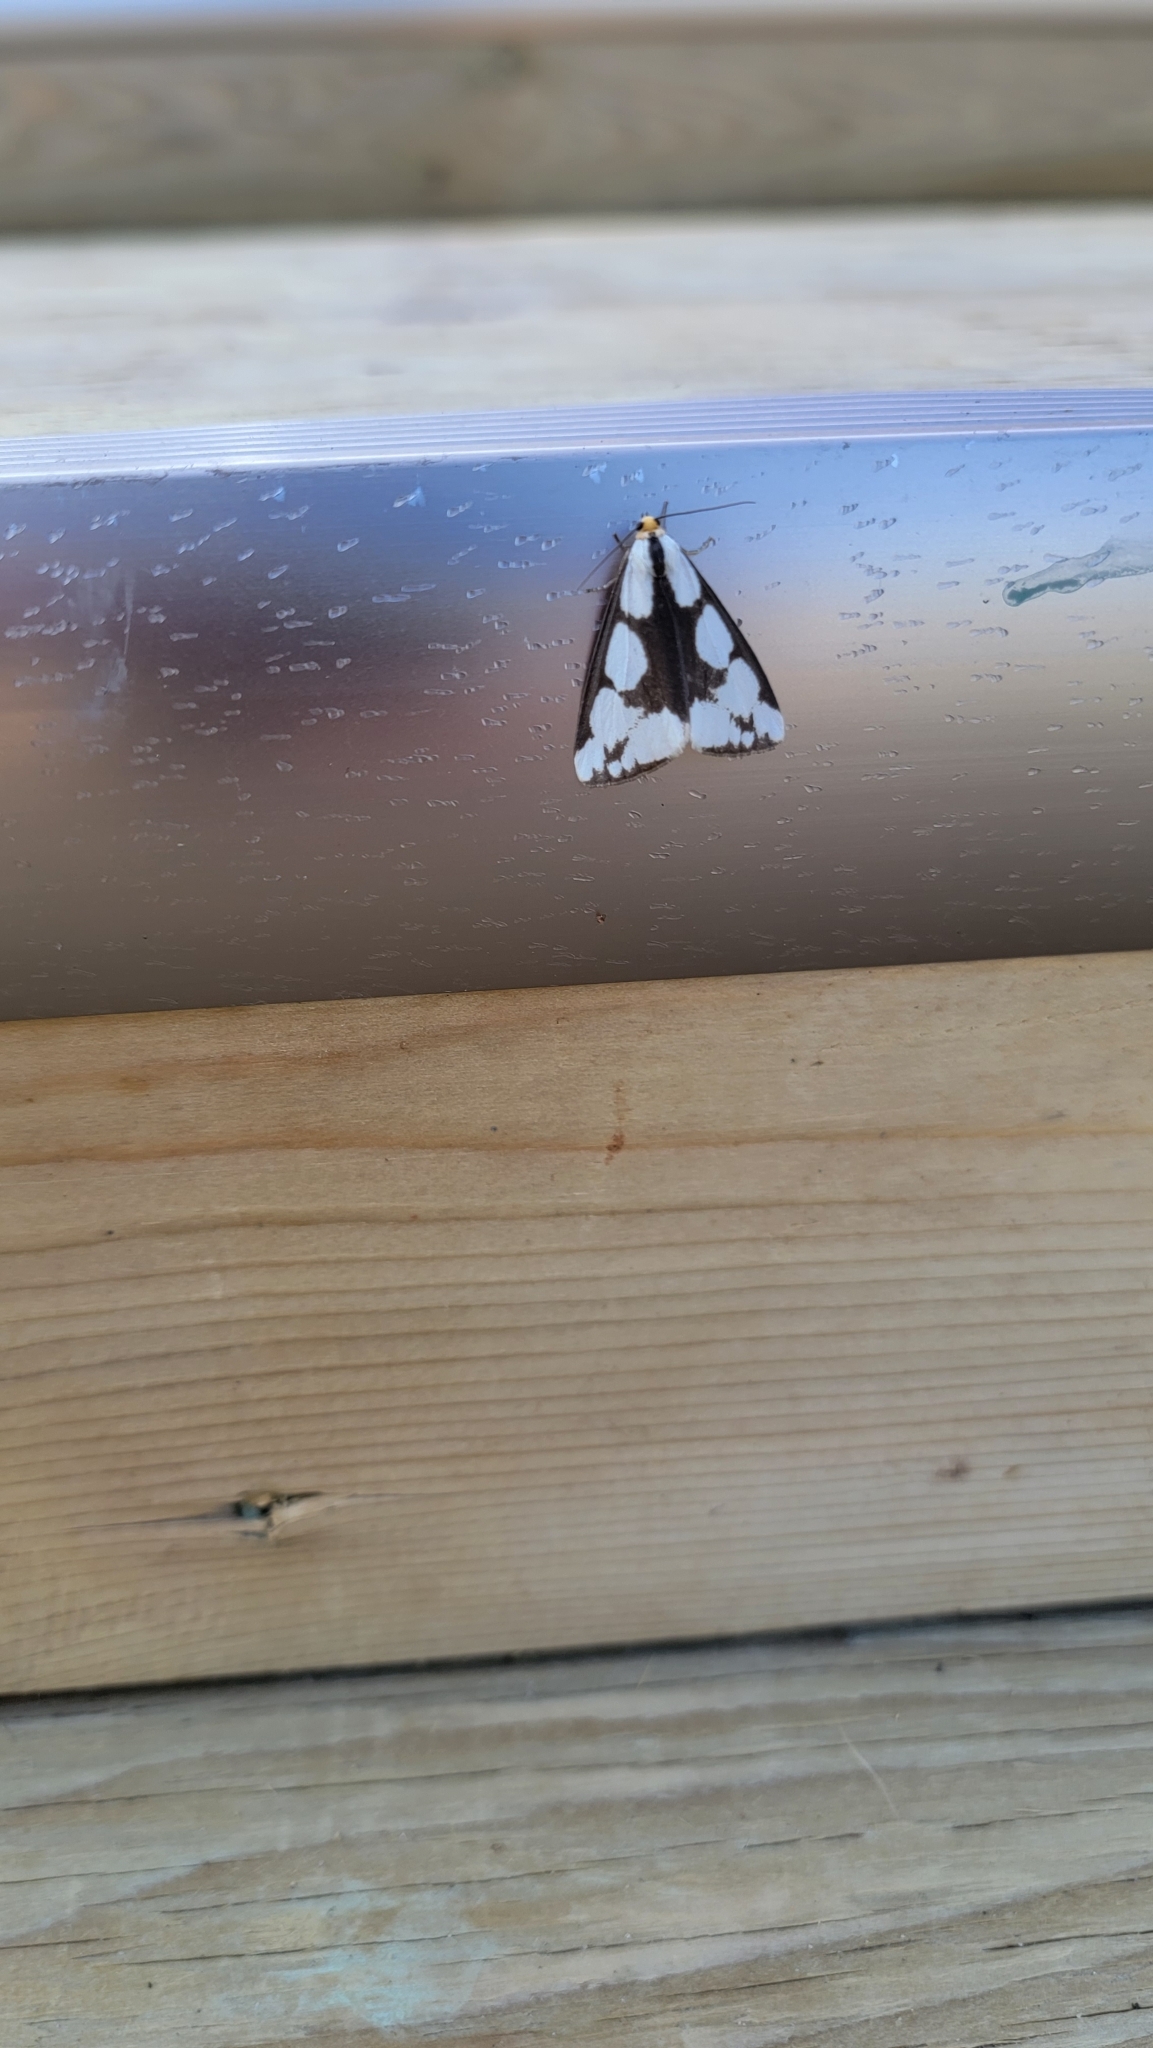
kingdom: Animalia
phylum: Arthropoda
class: Insecta
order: Lepidoptera
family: Erebidae
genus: Haploa
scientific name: Haploa lecontei
